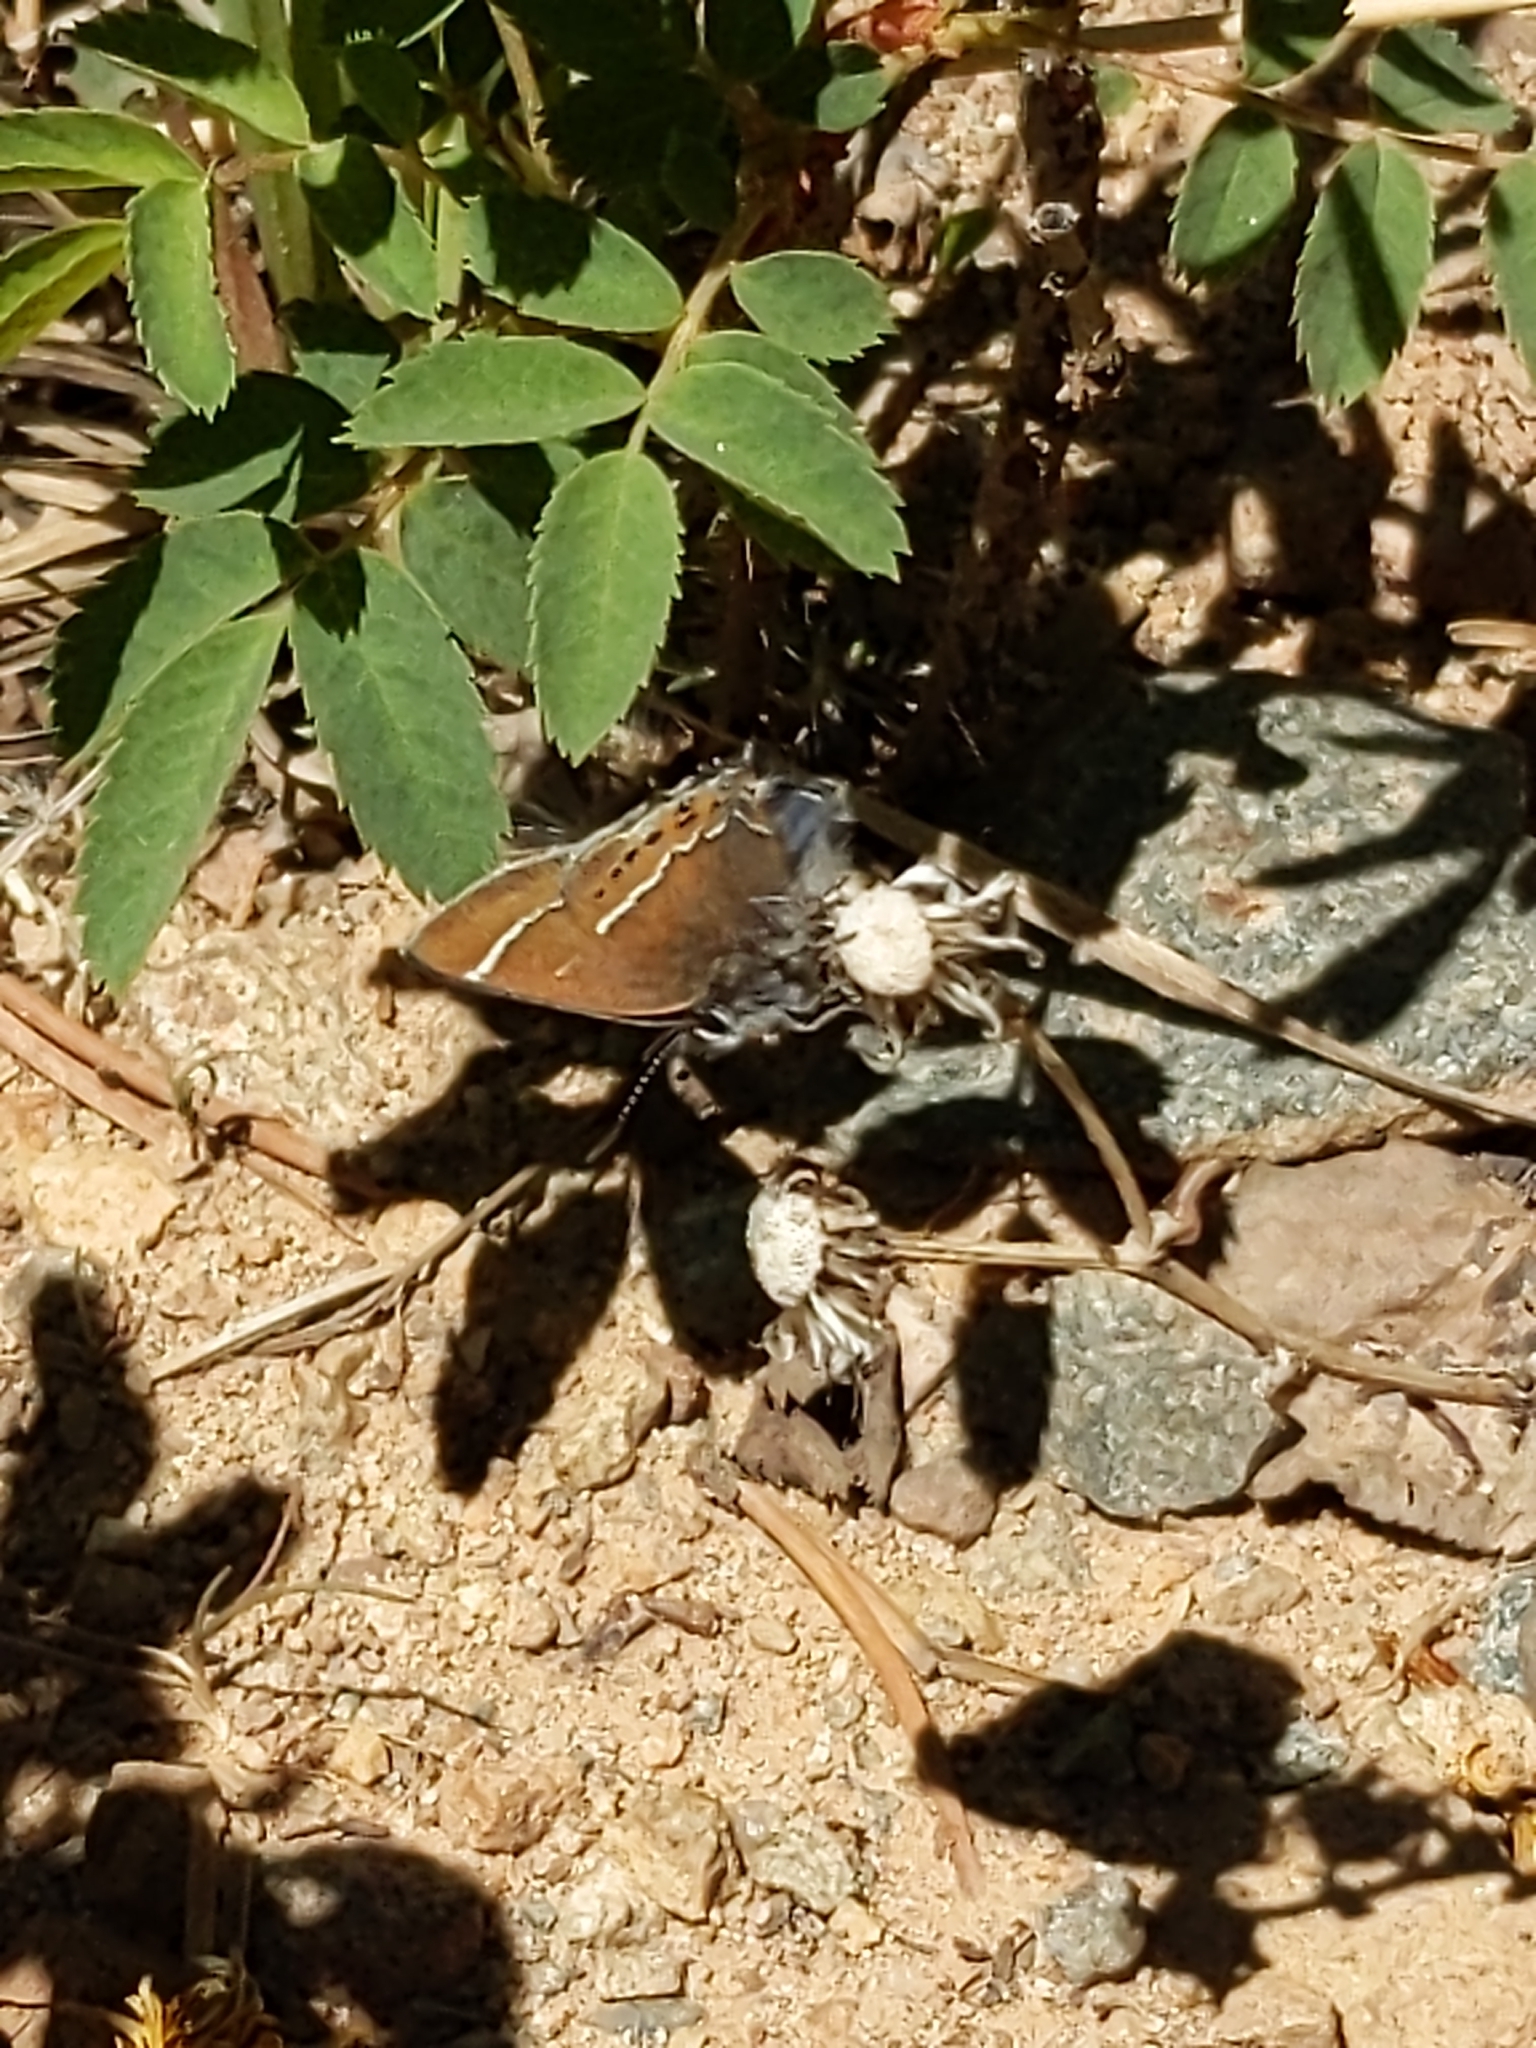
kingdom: Animalia
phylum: Arthropoda
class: Insecta
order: Lepidoptera
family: Lycaenidae
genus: Mitoura
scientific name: Mitoura spinetorum
